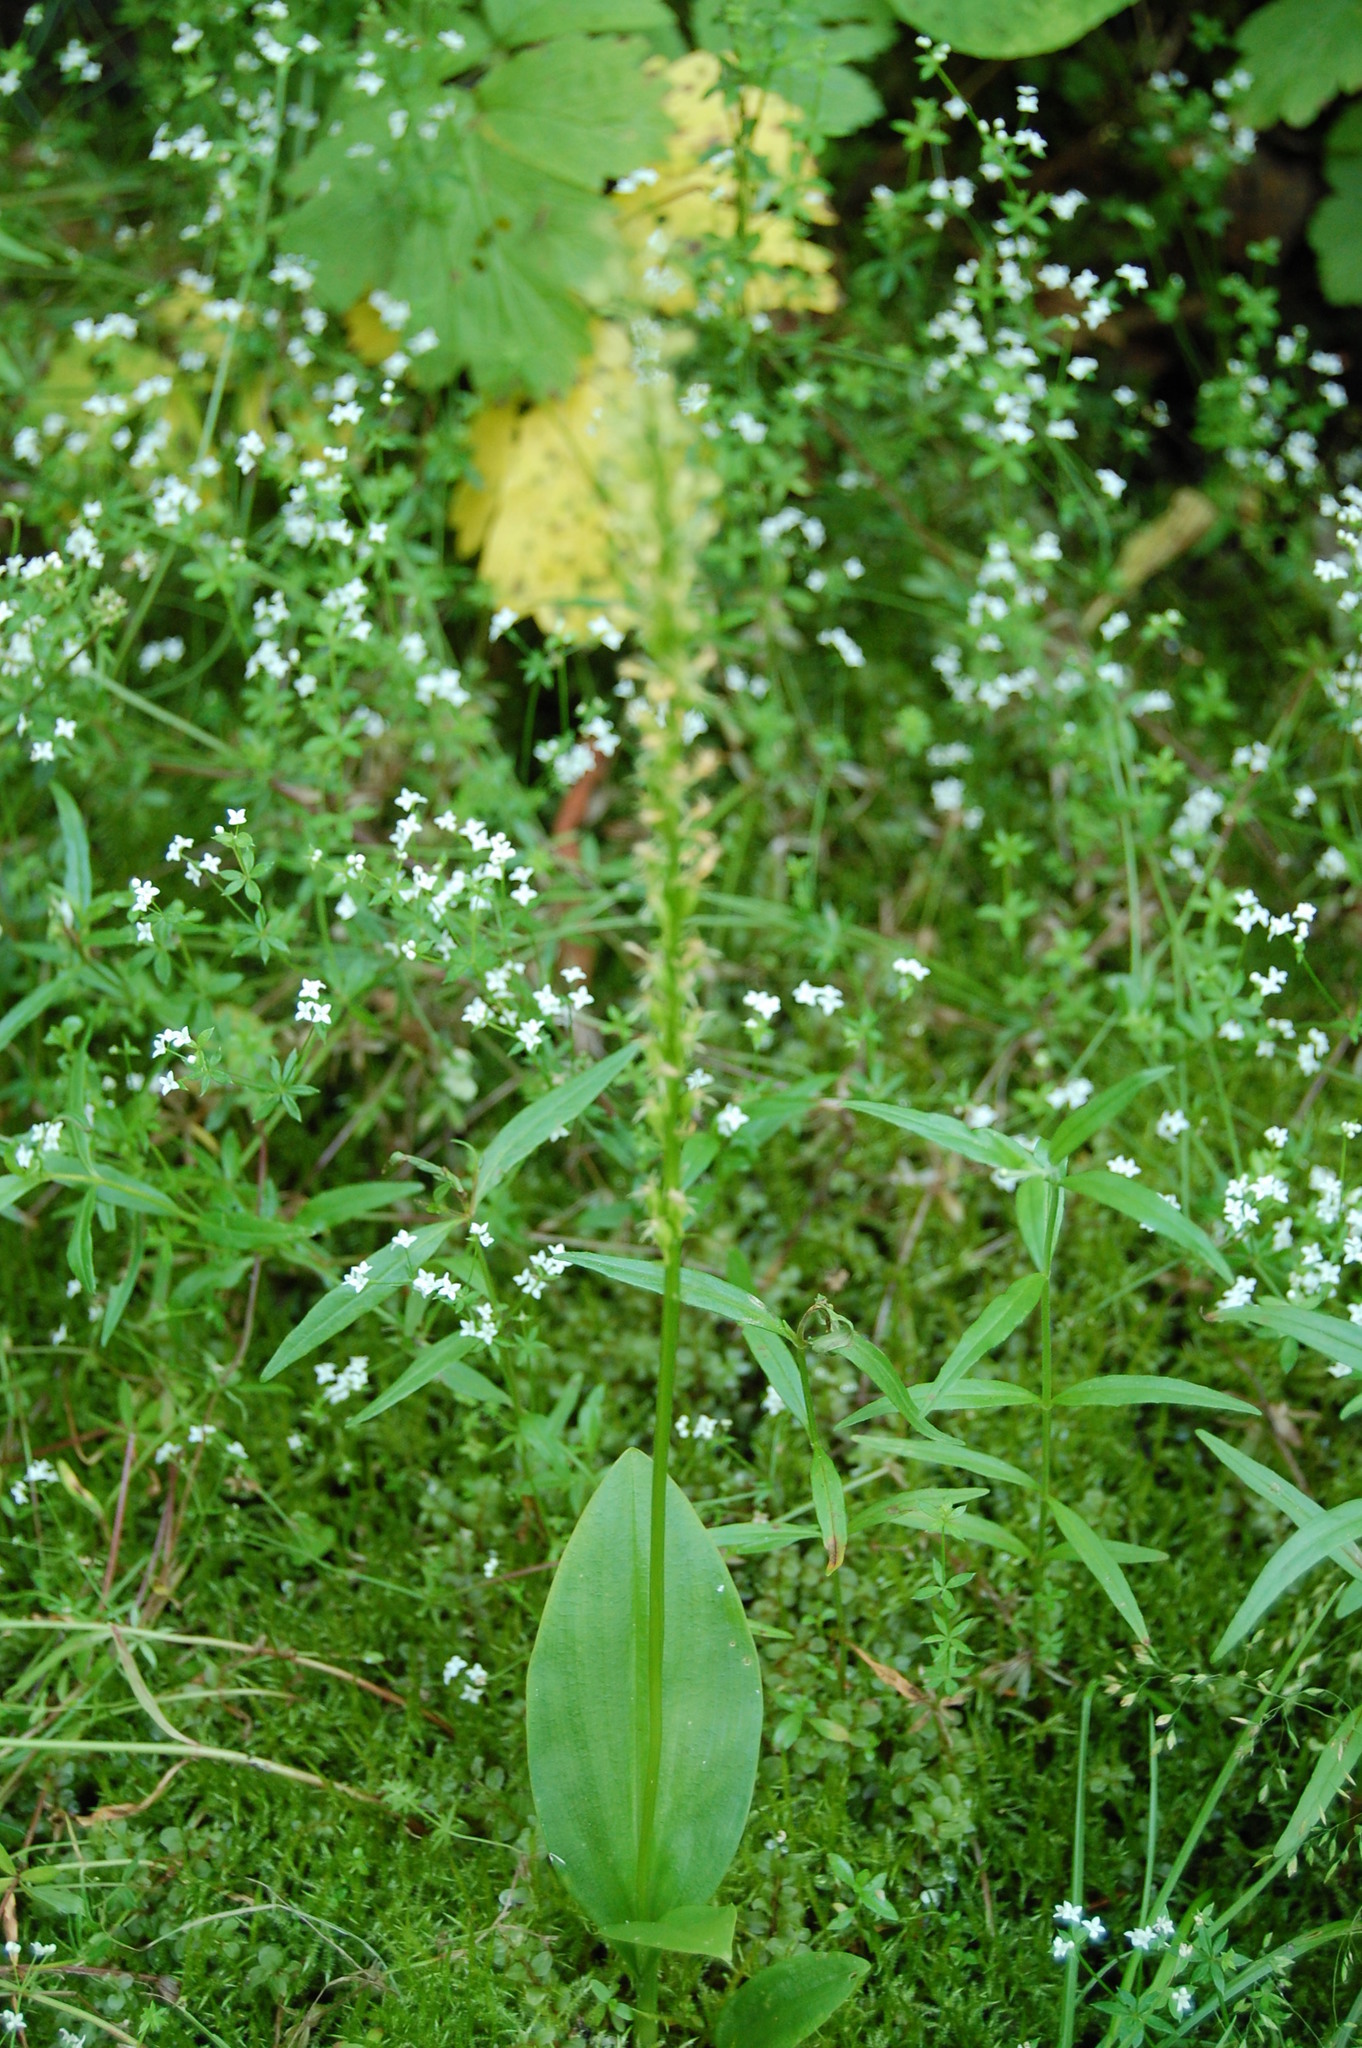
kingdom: Plantae
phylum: Tracheophyta
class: Liliopsida
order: Asparagales
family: Orchidaceae
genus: Malaxis
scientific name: Malaxis monophyllos
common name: White adder's-mouth
